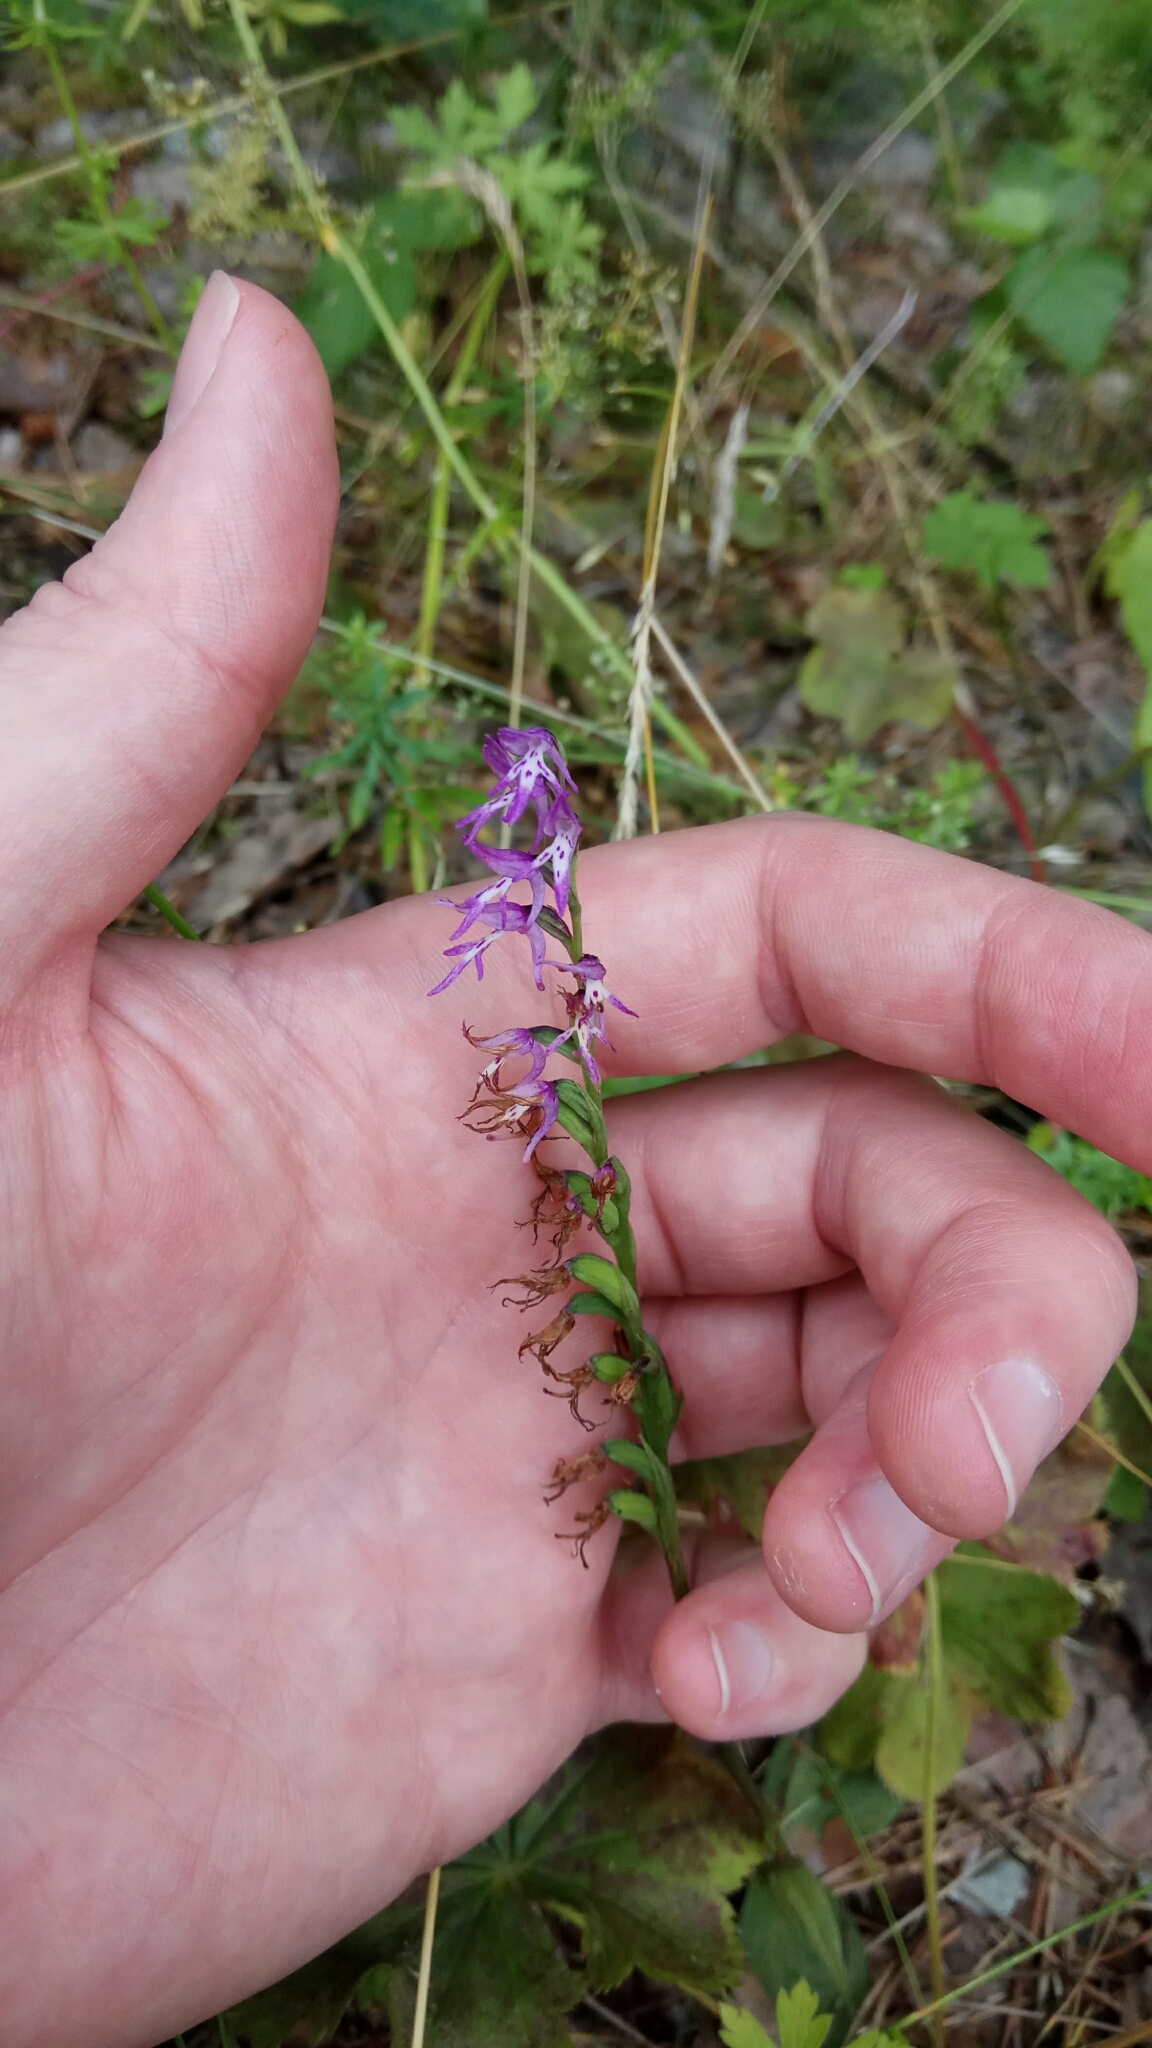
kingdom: Plantae
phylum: Tracheophyta
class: Liliopsida
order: Asparagales
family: Orchidaceae
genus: Hemipilia
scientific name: Hemipilia cucullata
